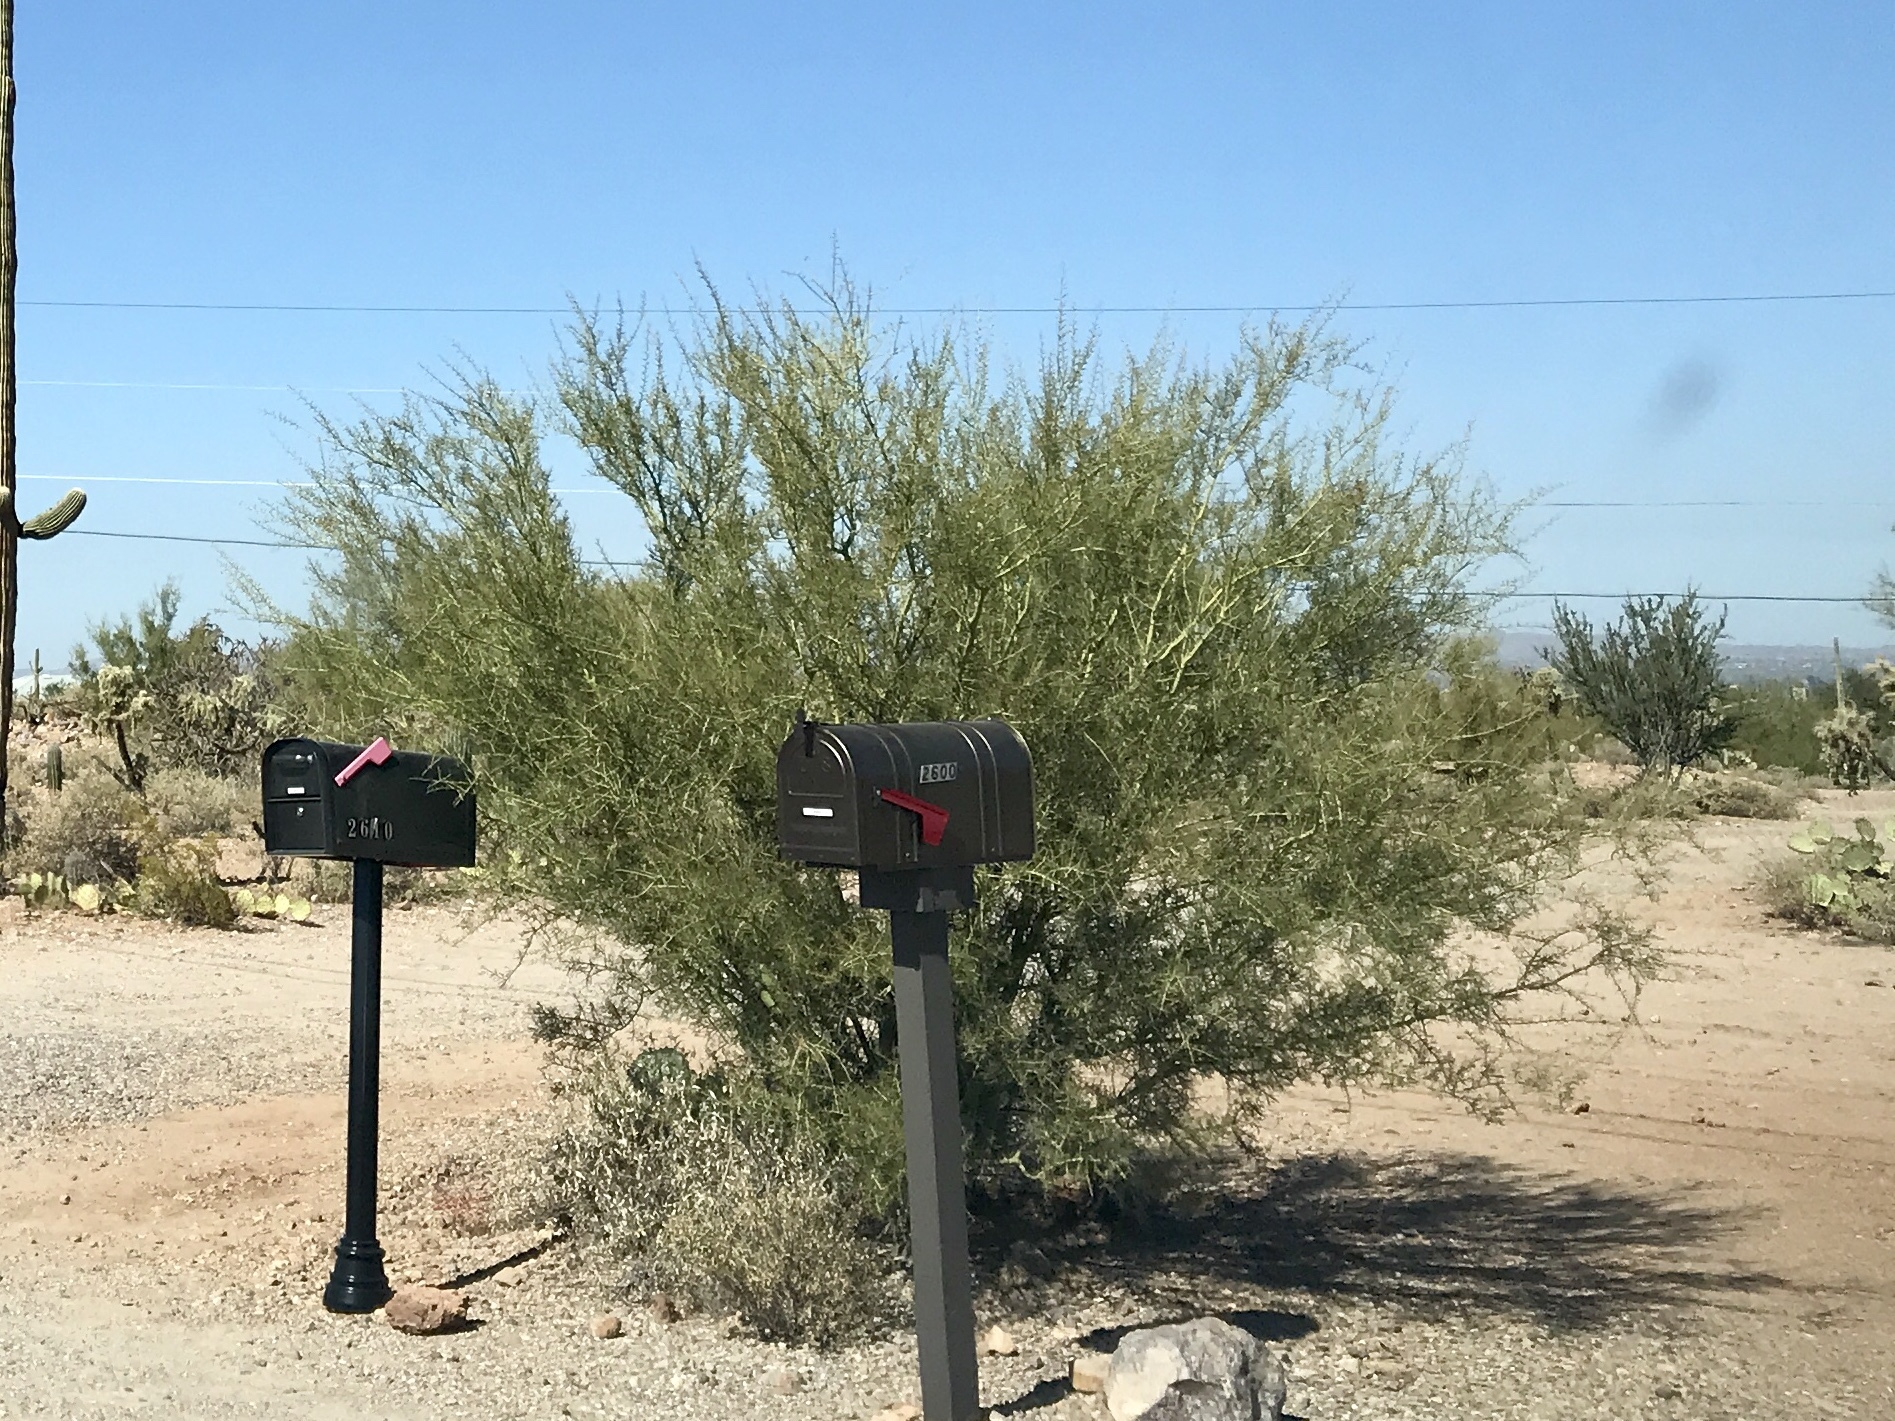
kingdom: Plantae
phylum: Tracheophyta
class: Magnoliopsida
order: Fabales
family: Fabaceae
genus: Parkinsonia
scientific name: Parkinsonia florida
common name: Blue paloverde
